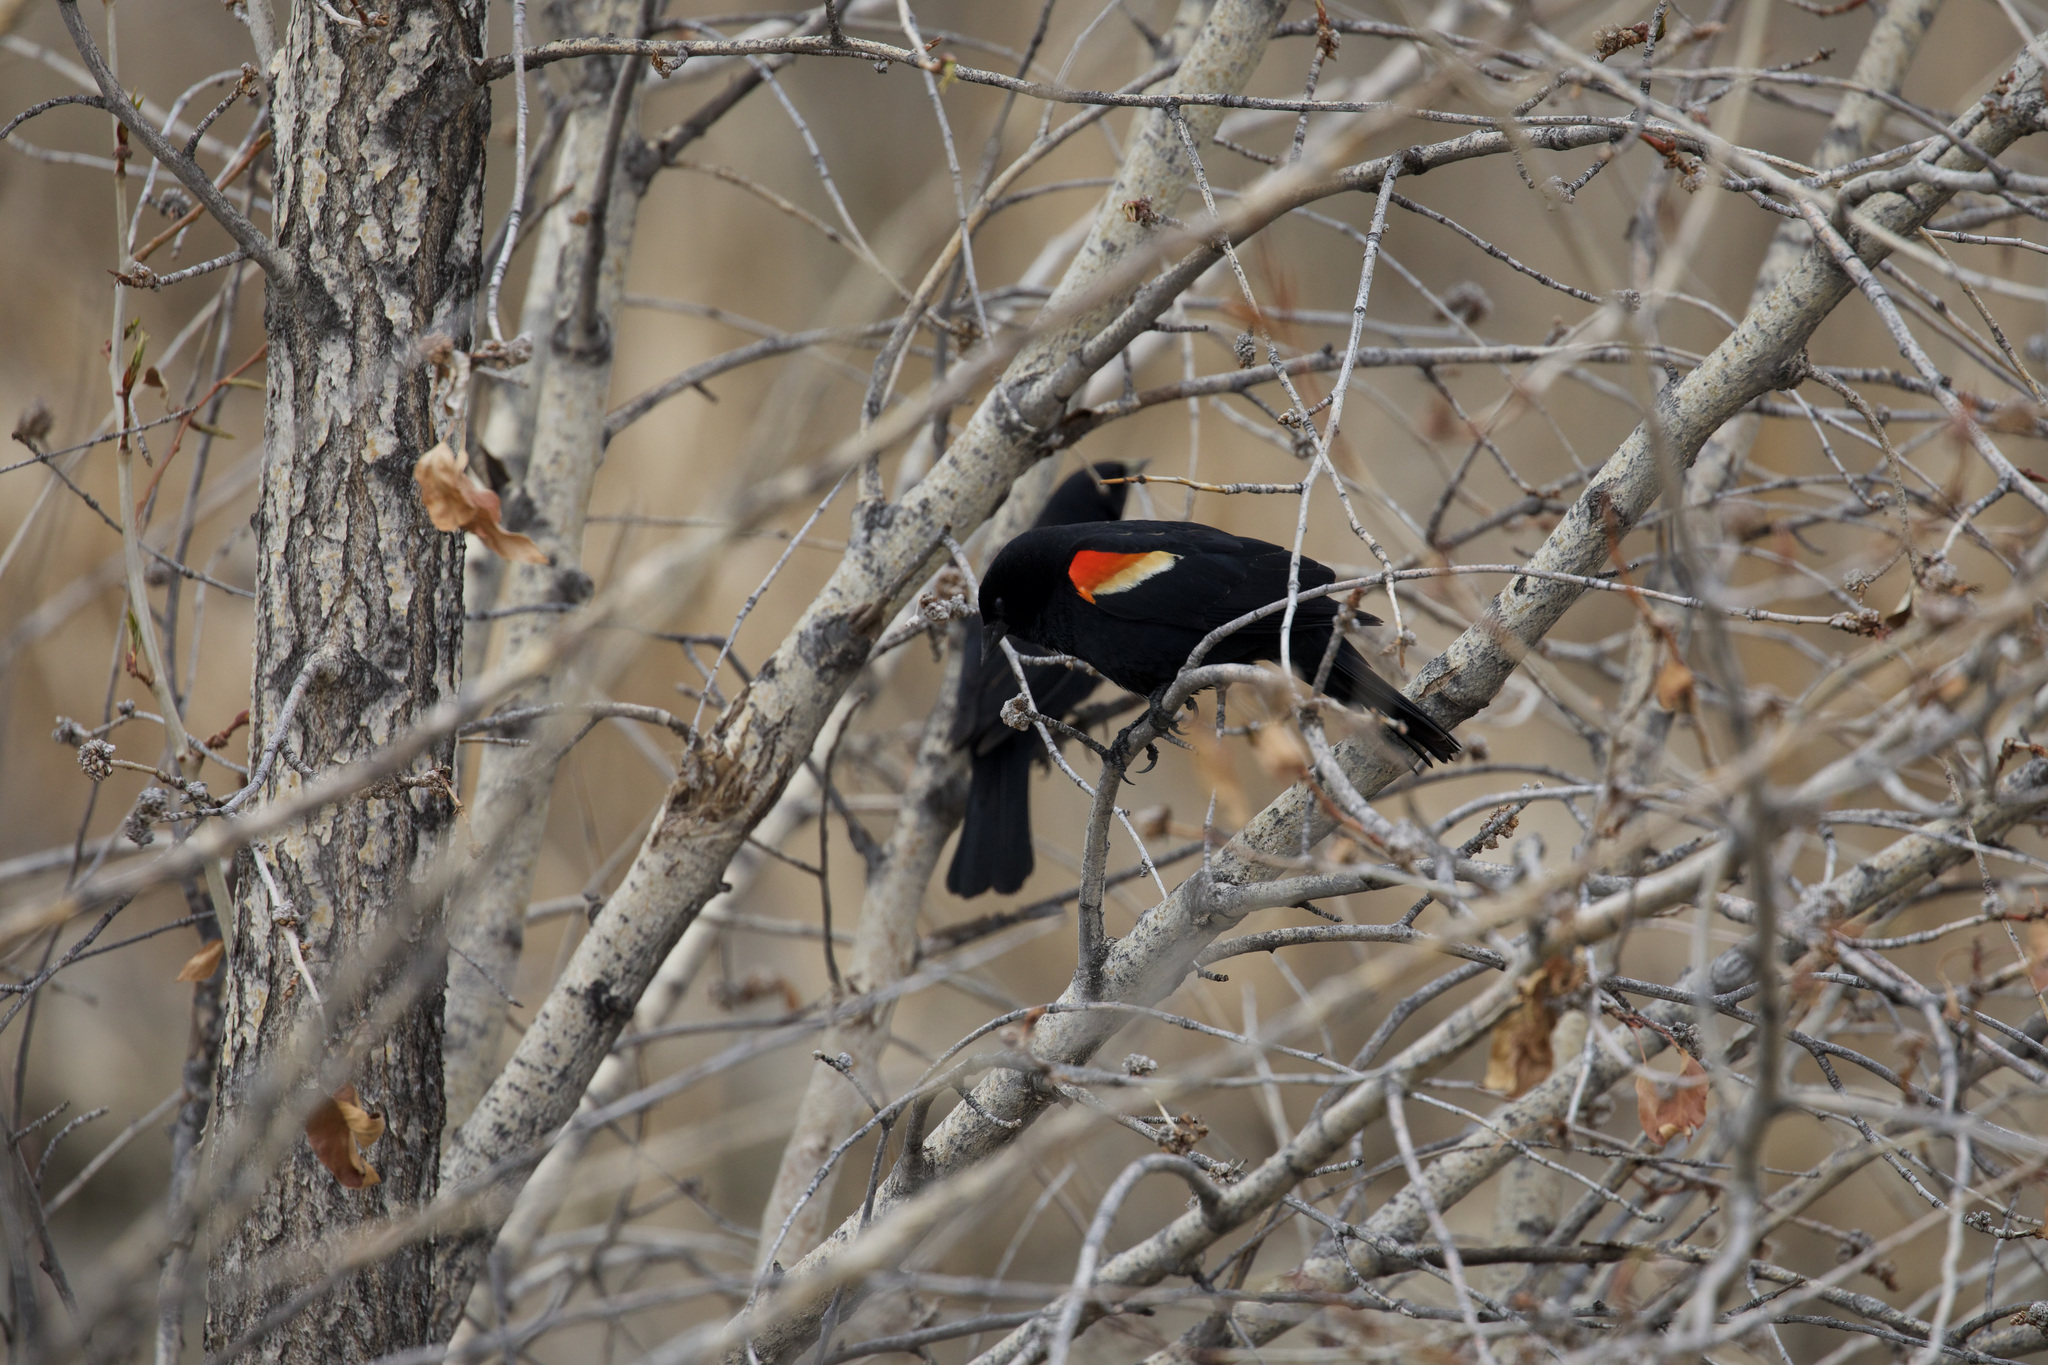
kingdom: Animalia
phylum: Chordata
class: Aves
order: Passeriformes
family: Icteridae
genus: Agelaius
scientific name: Agelaius phoeniceus
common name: Red-winged blackbird
